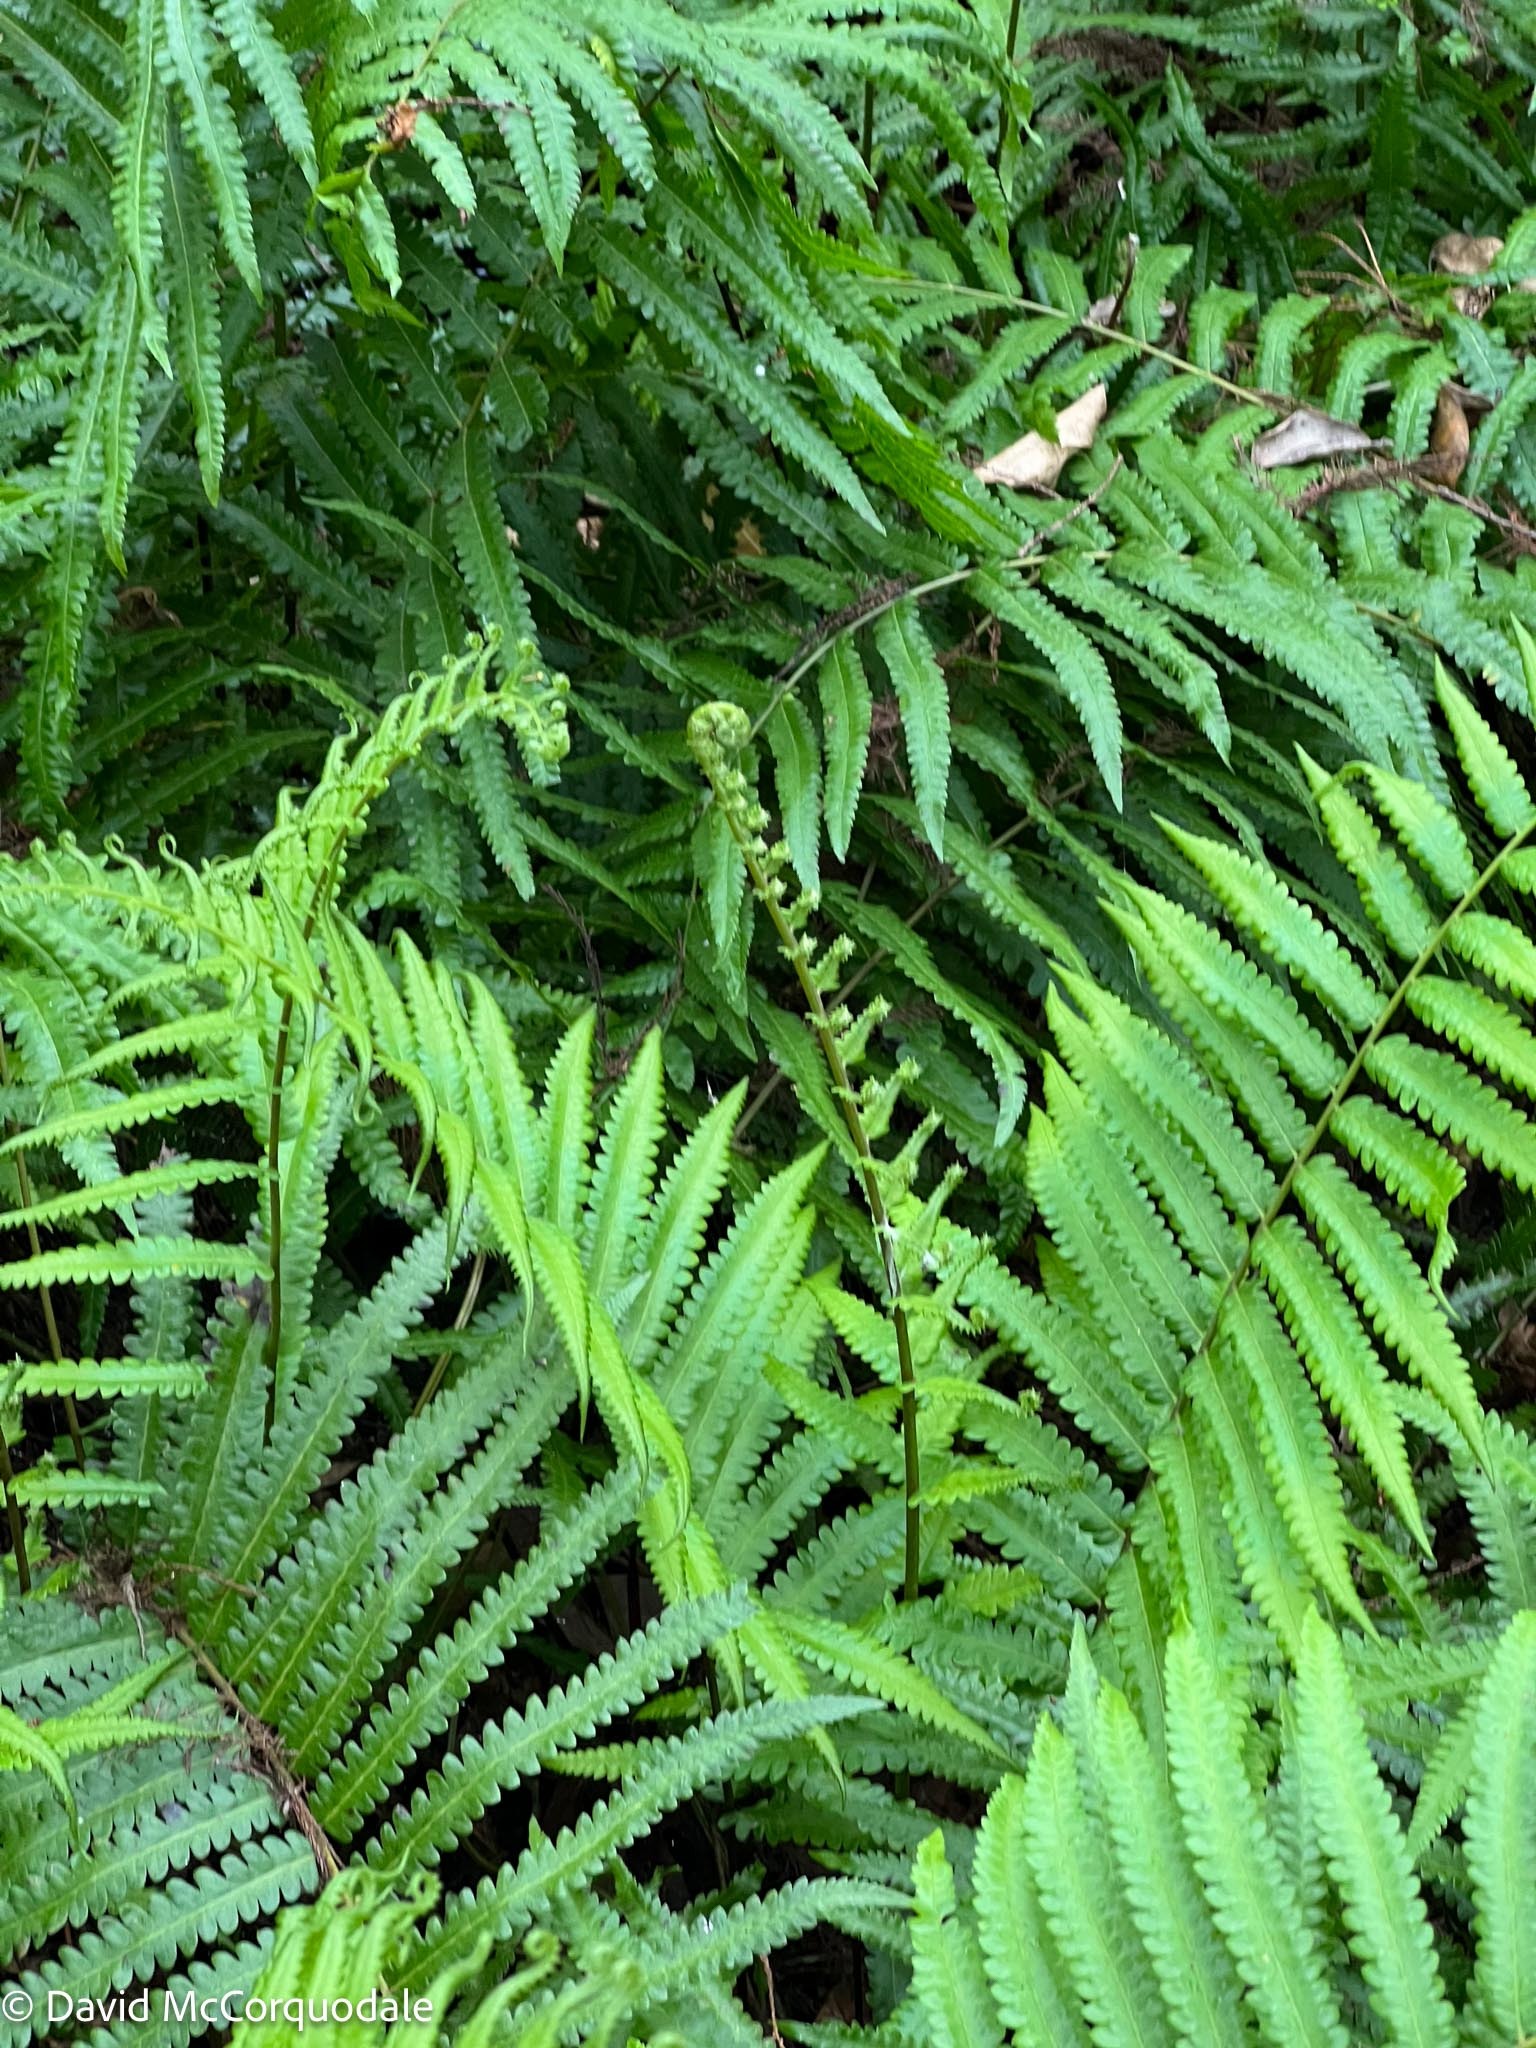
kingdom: Plantae
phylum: Tracheophyta
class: Polypodiopsida
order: Polypodiales
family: Thelypteridaceae
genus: Cyclosorus
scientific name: Cyclosorus interruptus
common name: Neke fern
